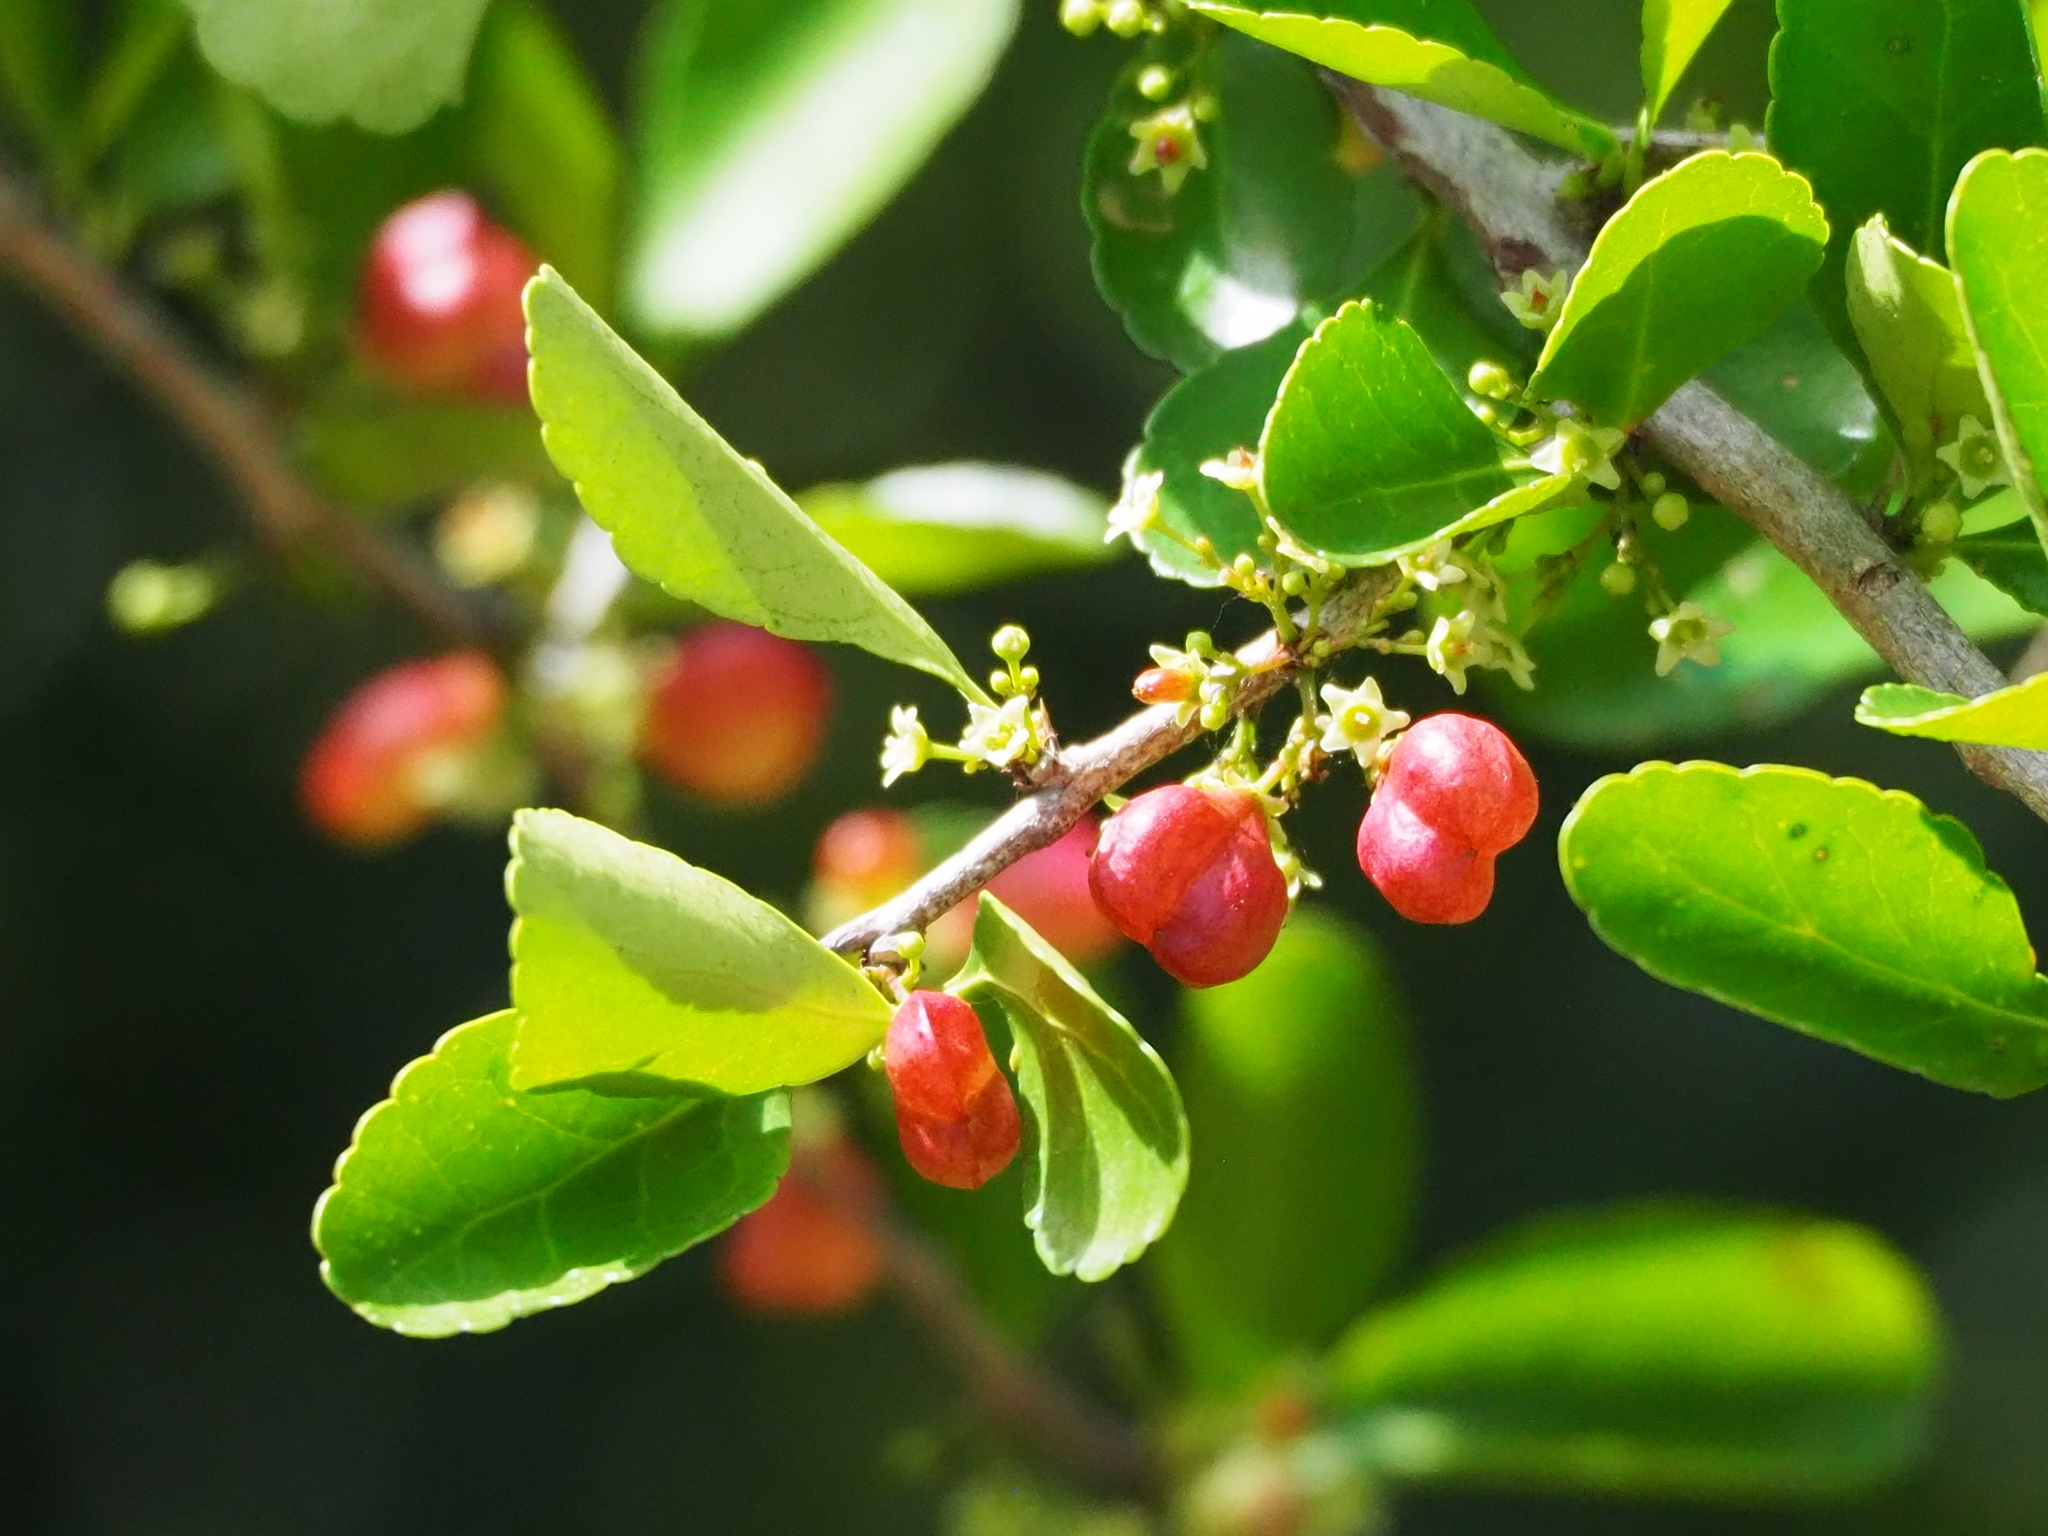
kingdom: Plantae
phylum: Tracheophyta
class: Magnoliopsida
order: Celastrales
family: Celastraceae
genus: Gymnosporia
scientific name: Gymnosporia diversifolia
